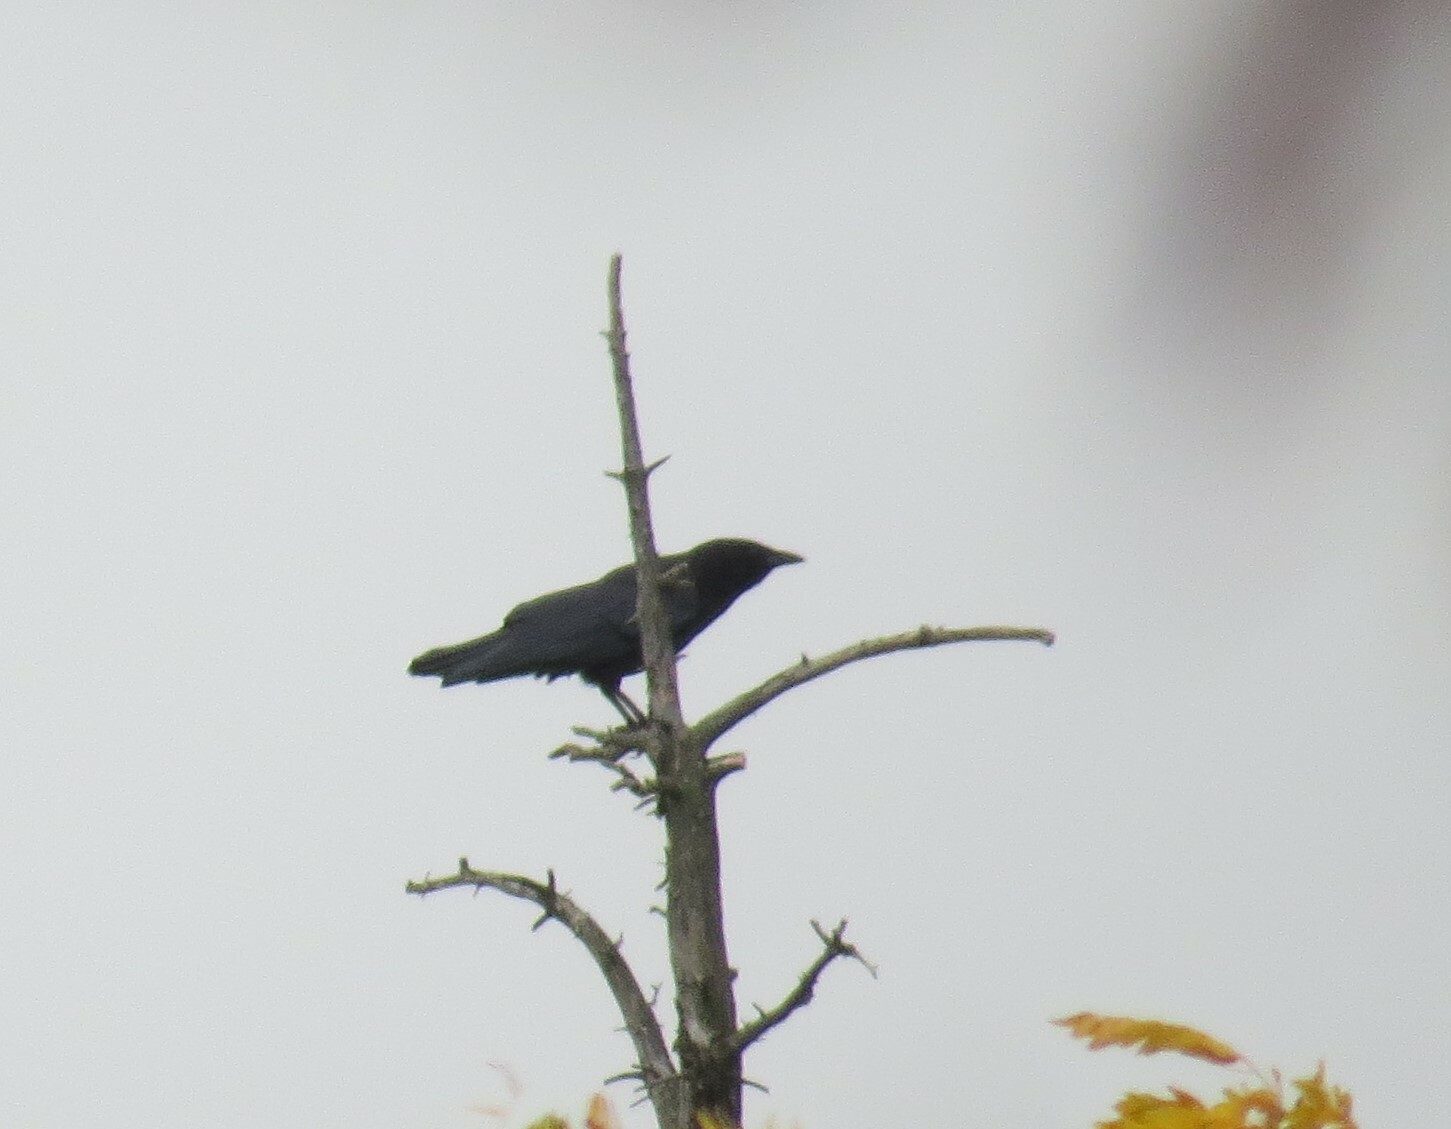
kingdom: Animalia
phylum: Chordata
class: Aves
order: Passeriformes
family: Corvidae
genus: Corvus
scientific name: Corvus brachyrhynchos
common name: American crow
